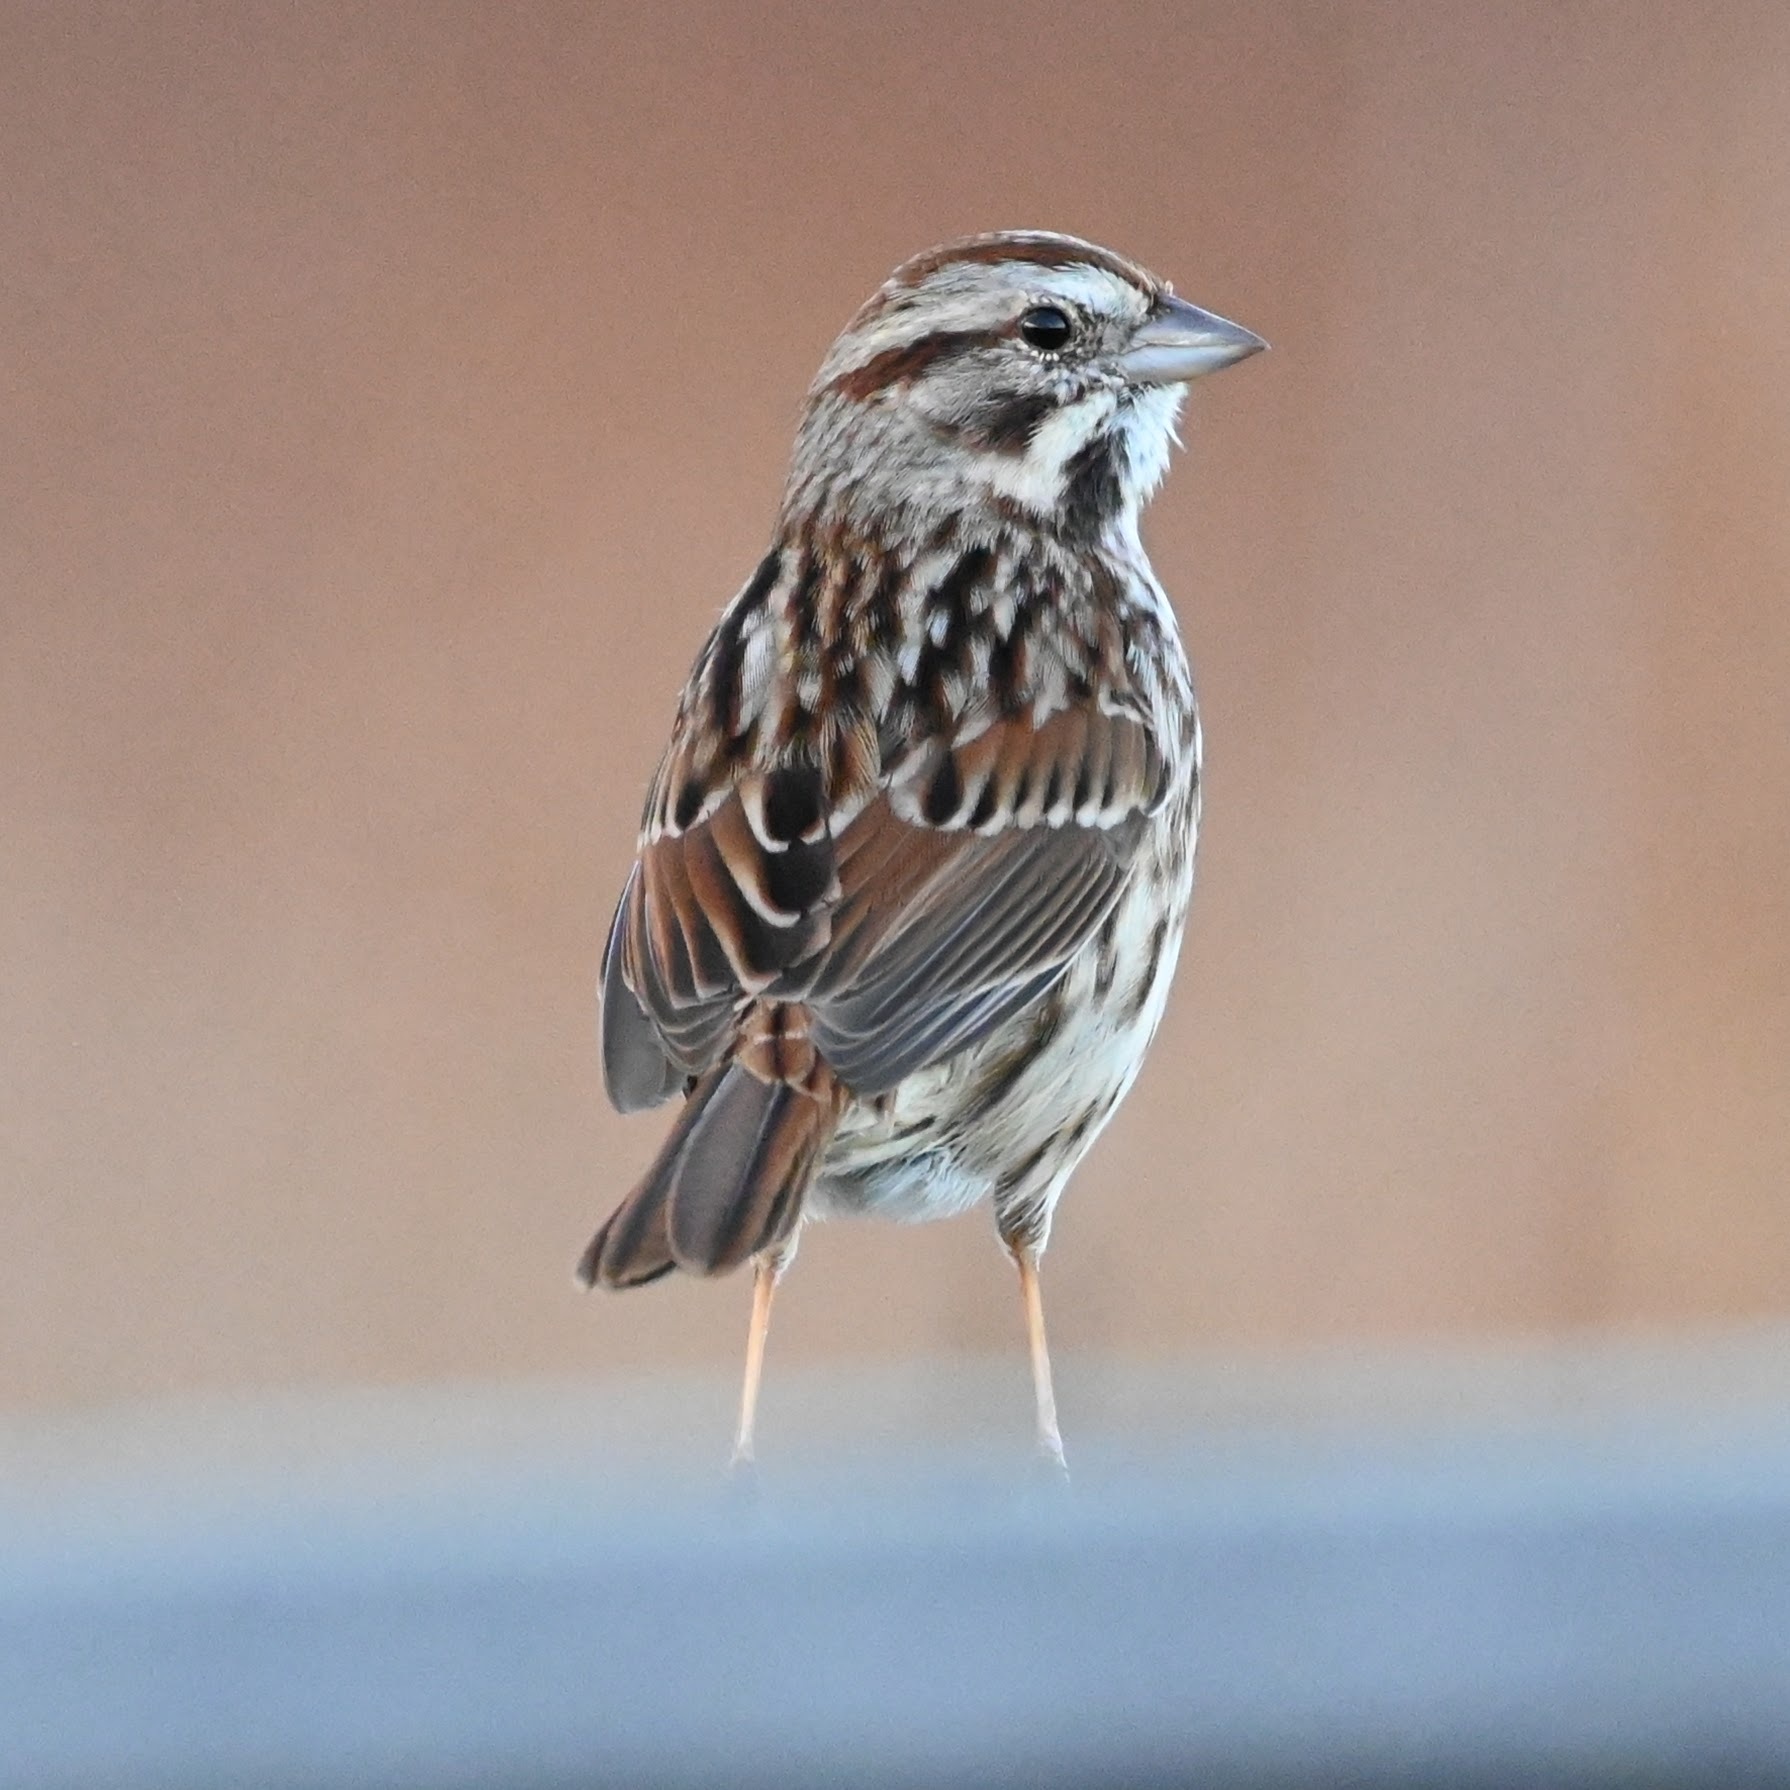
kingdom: Animalia
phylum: Chordata
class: Aves
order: Passeriformes
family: Passerellidae
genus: Melospiza
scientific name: Melospiza melodia
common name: Song sparrow
